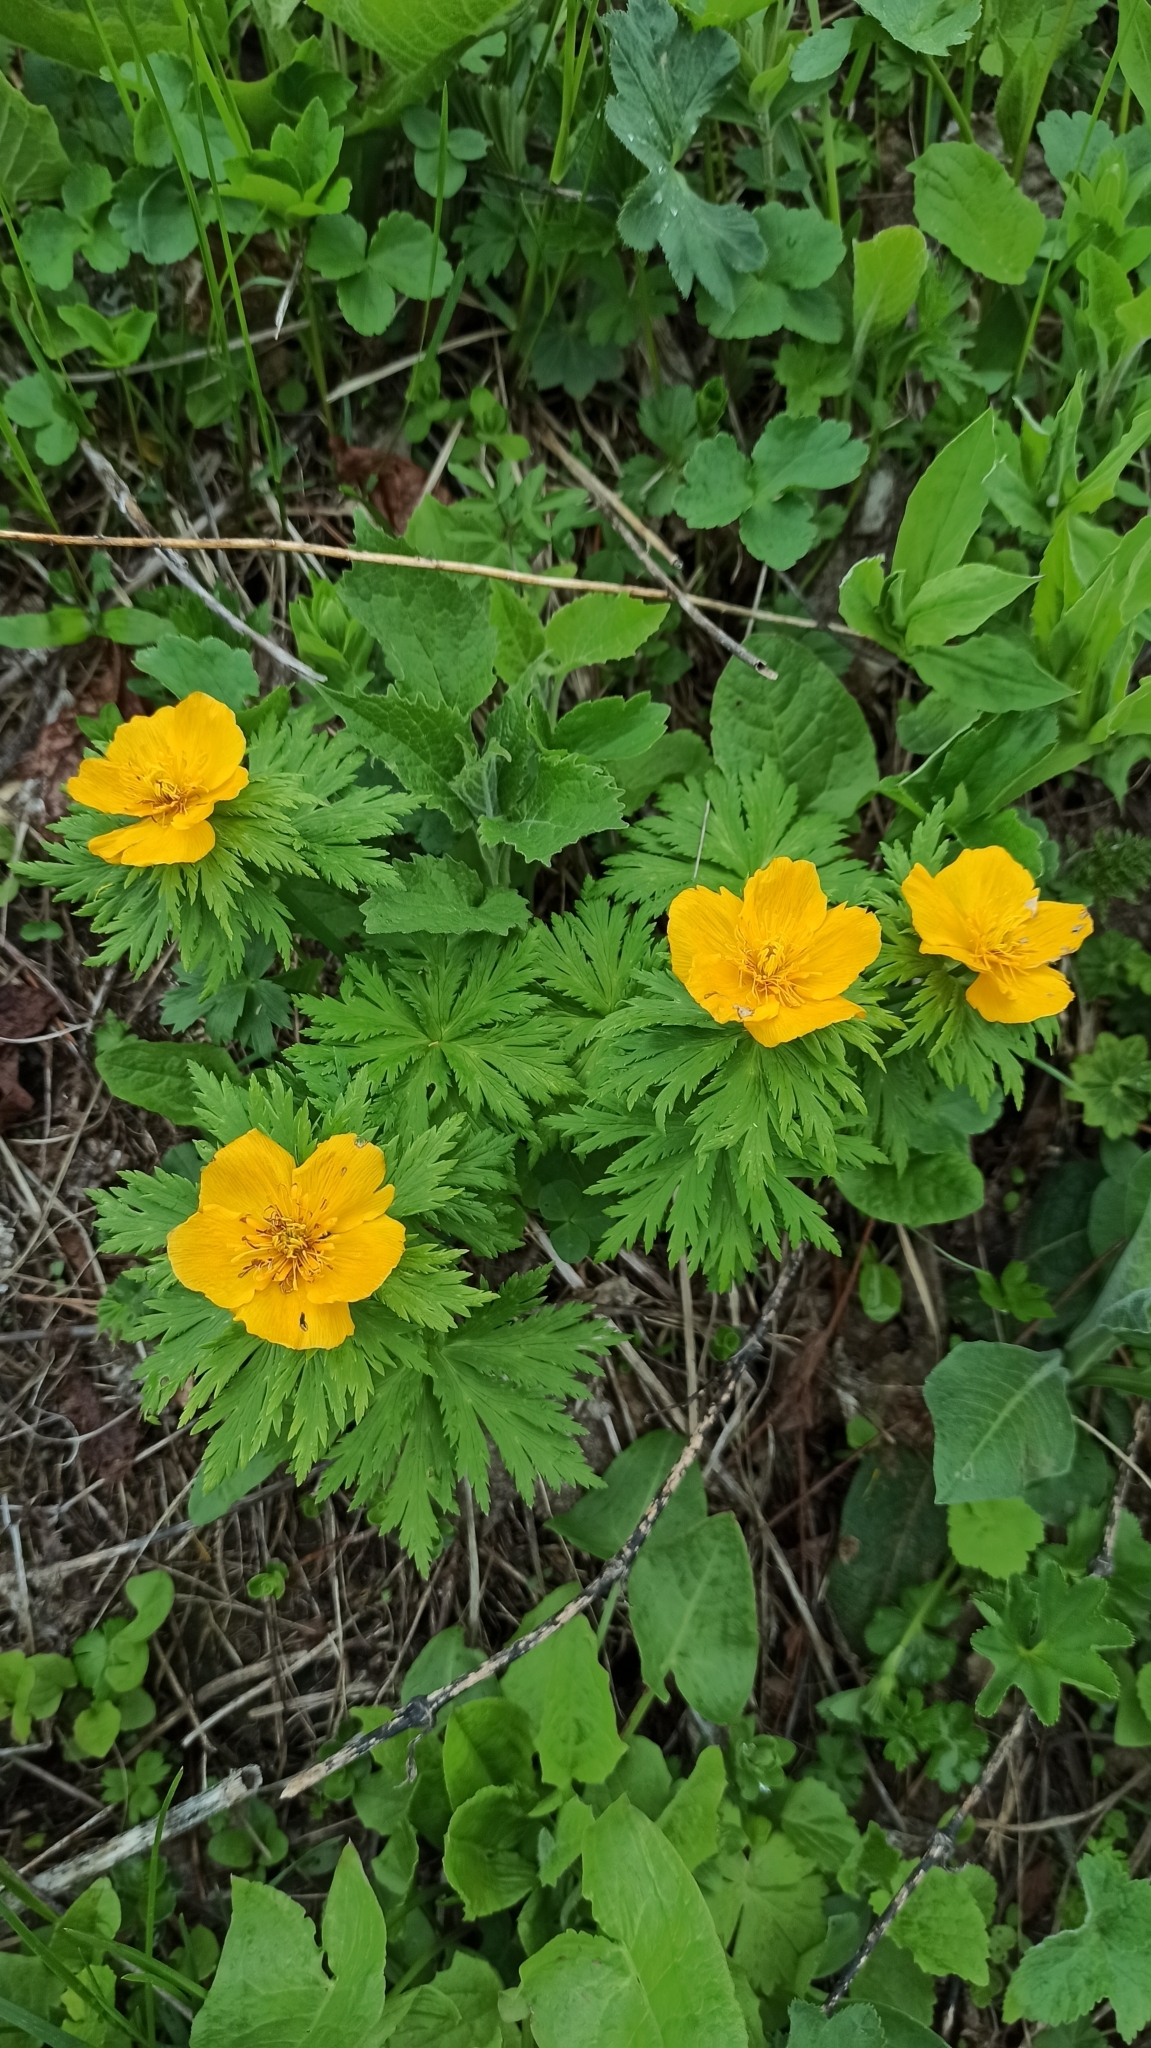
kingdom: Plantae
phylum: Tracheophyta
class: Magnoliopsida
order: Ranunculales
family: Ranunculaceae
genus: Trollius
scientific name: Trollius ranunculinus
